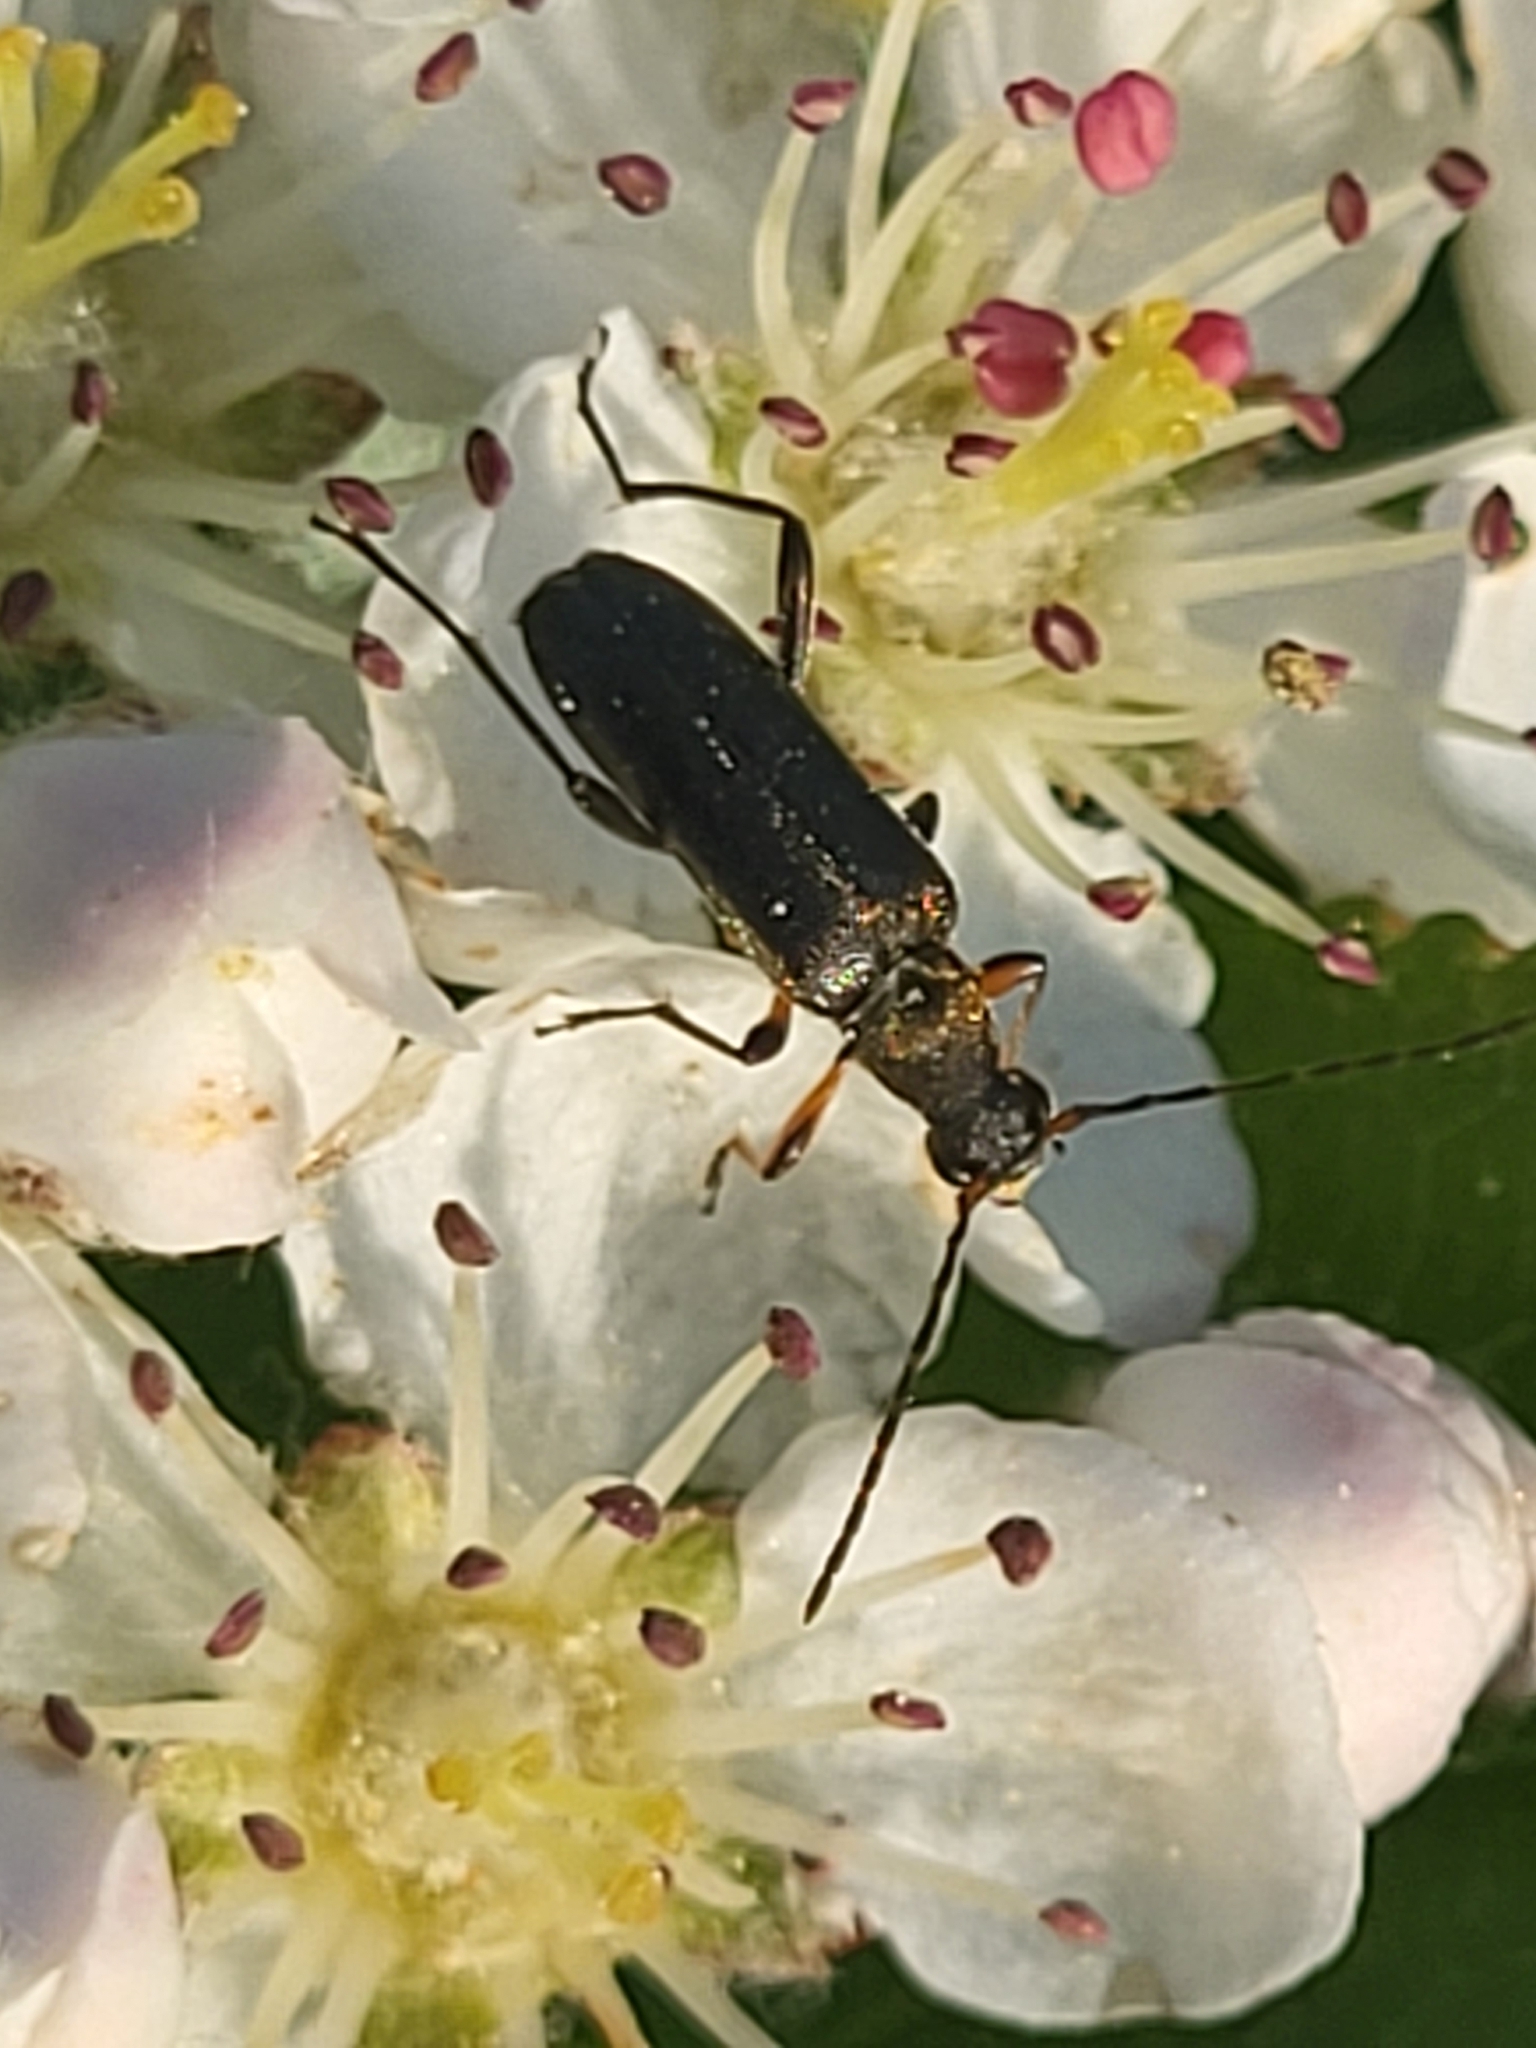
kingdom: Animalia
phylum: Arthropoda
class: Insecta
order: Coleoptera
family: Cerambycidae
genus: Grammoptera
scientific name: Grammoptera ruficornis
